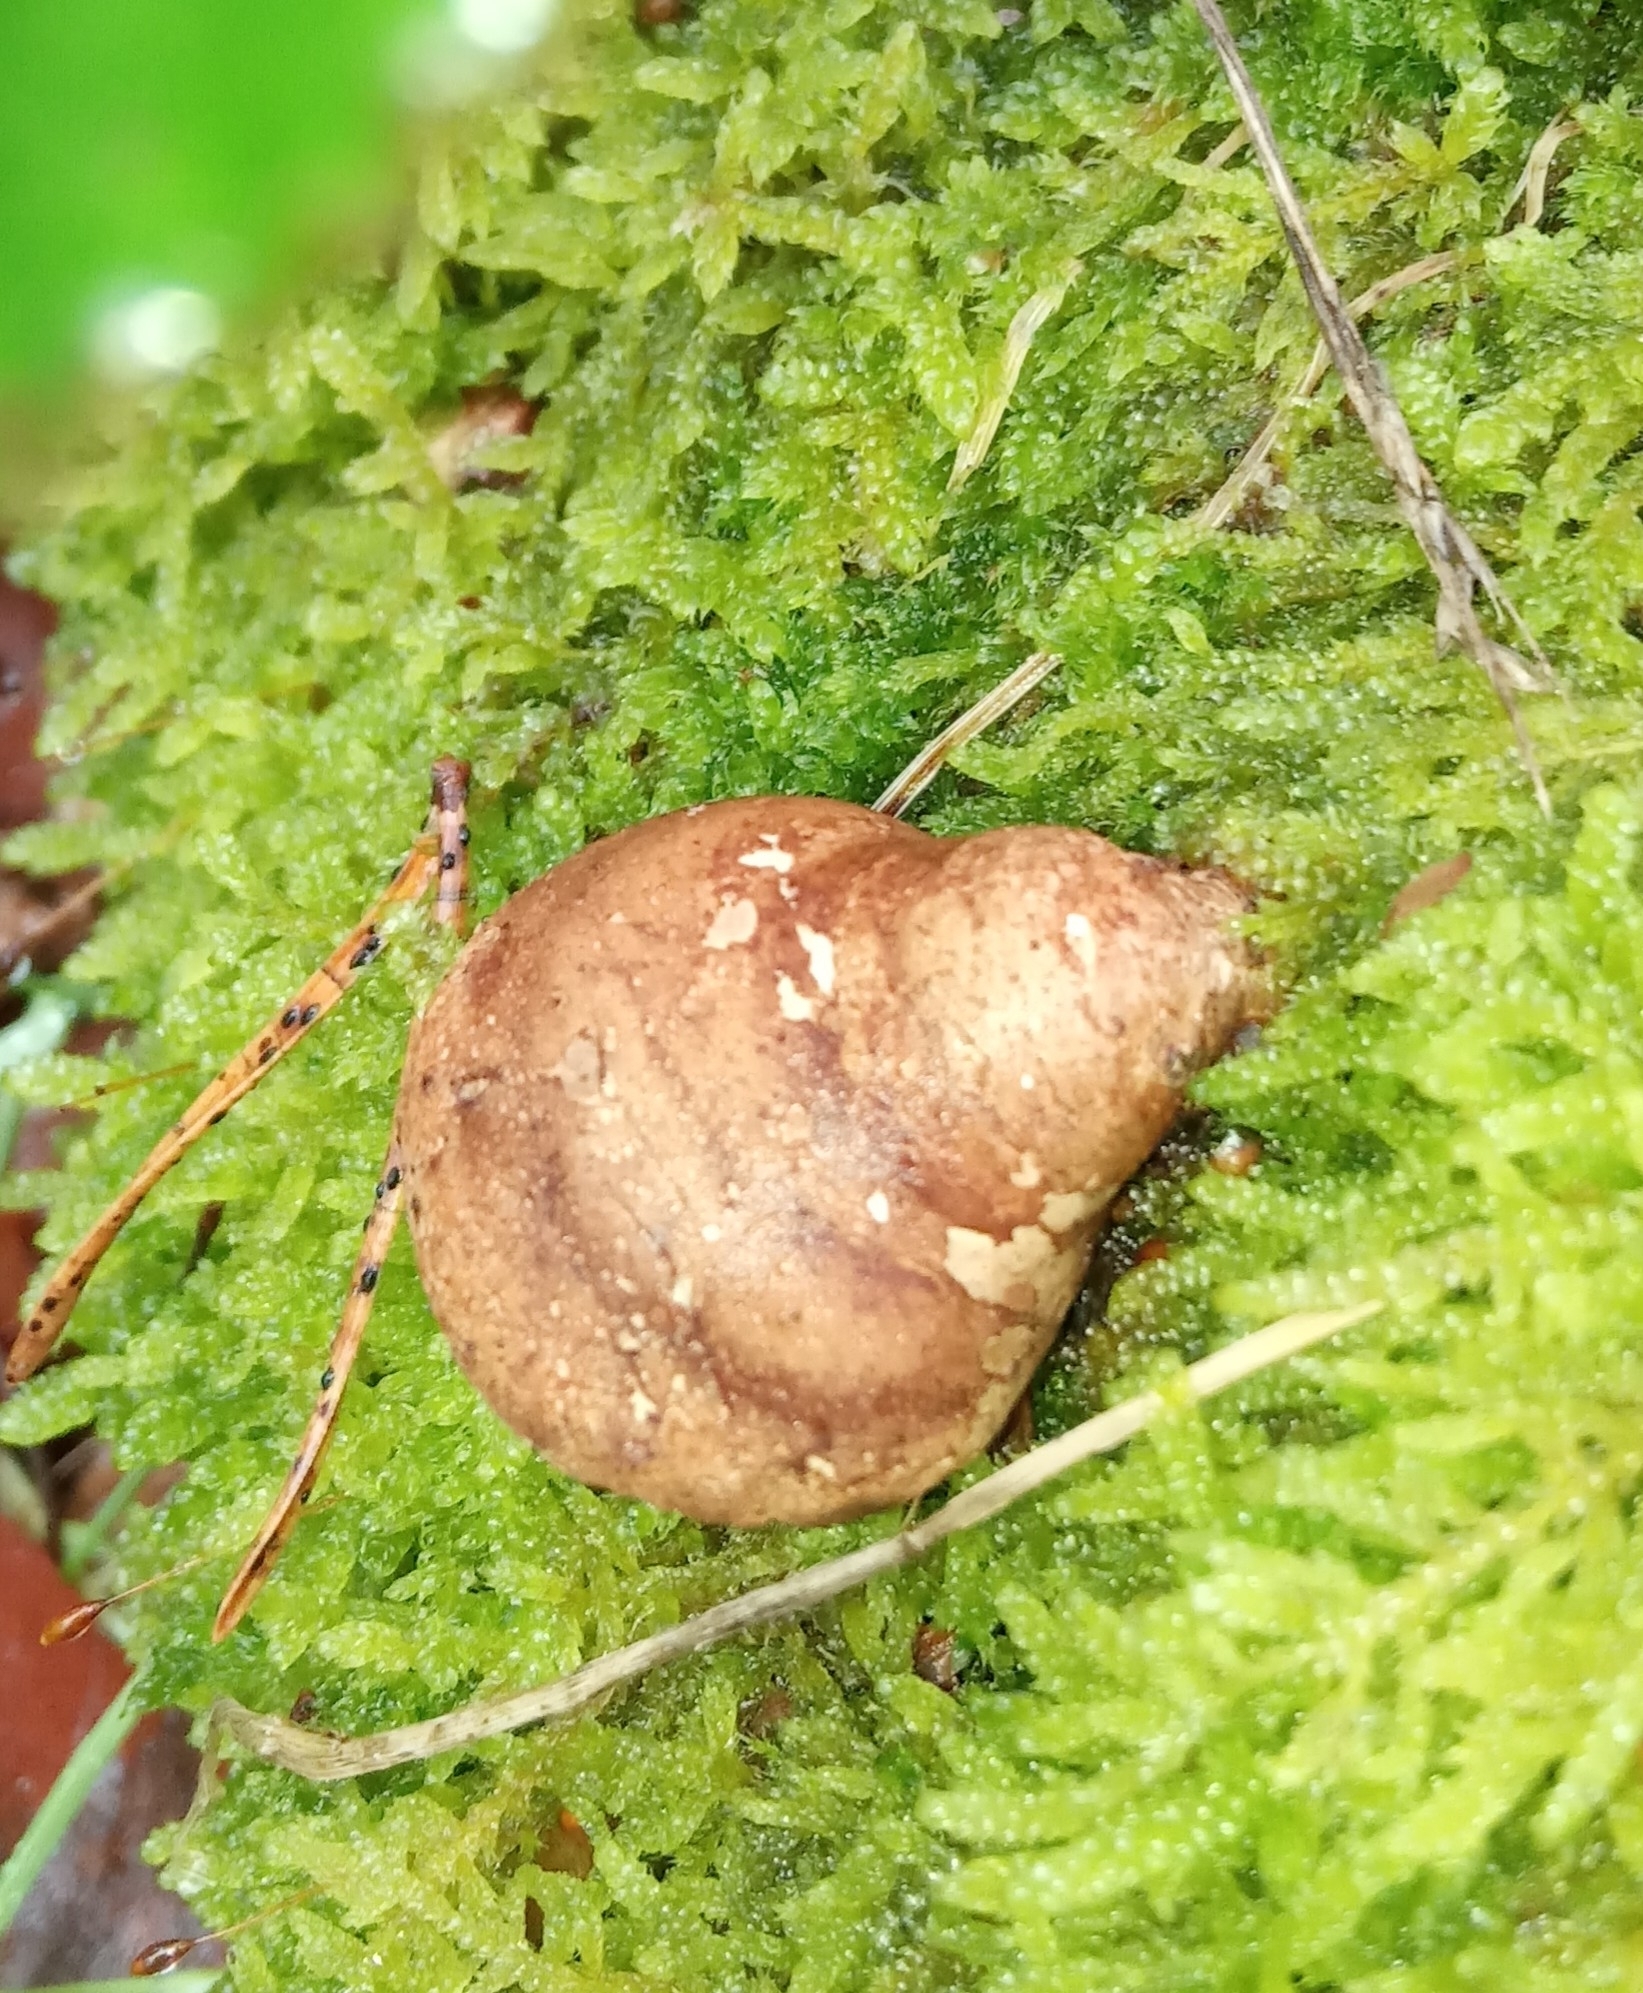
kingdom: Fungi
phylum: Basidiomycota
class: Agaricomycetes
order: Polyporales
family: Fomitopsidaceae
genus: Fomitopsis
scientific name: Fomitopsis betulina
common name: Birch polypore
